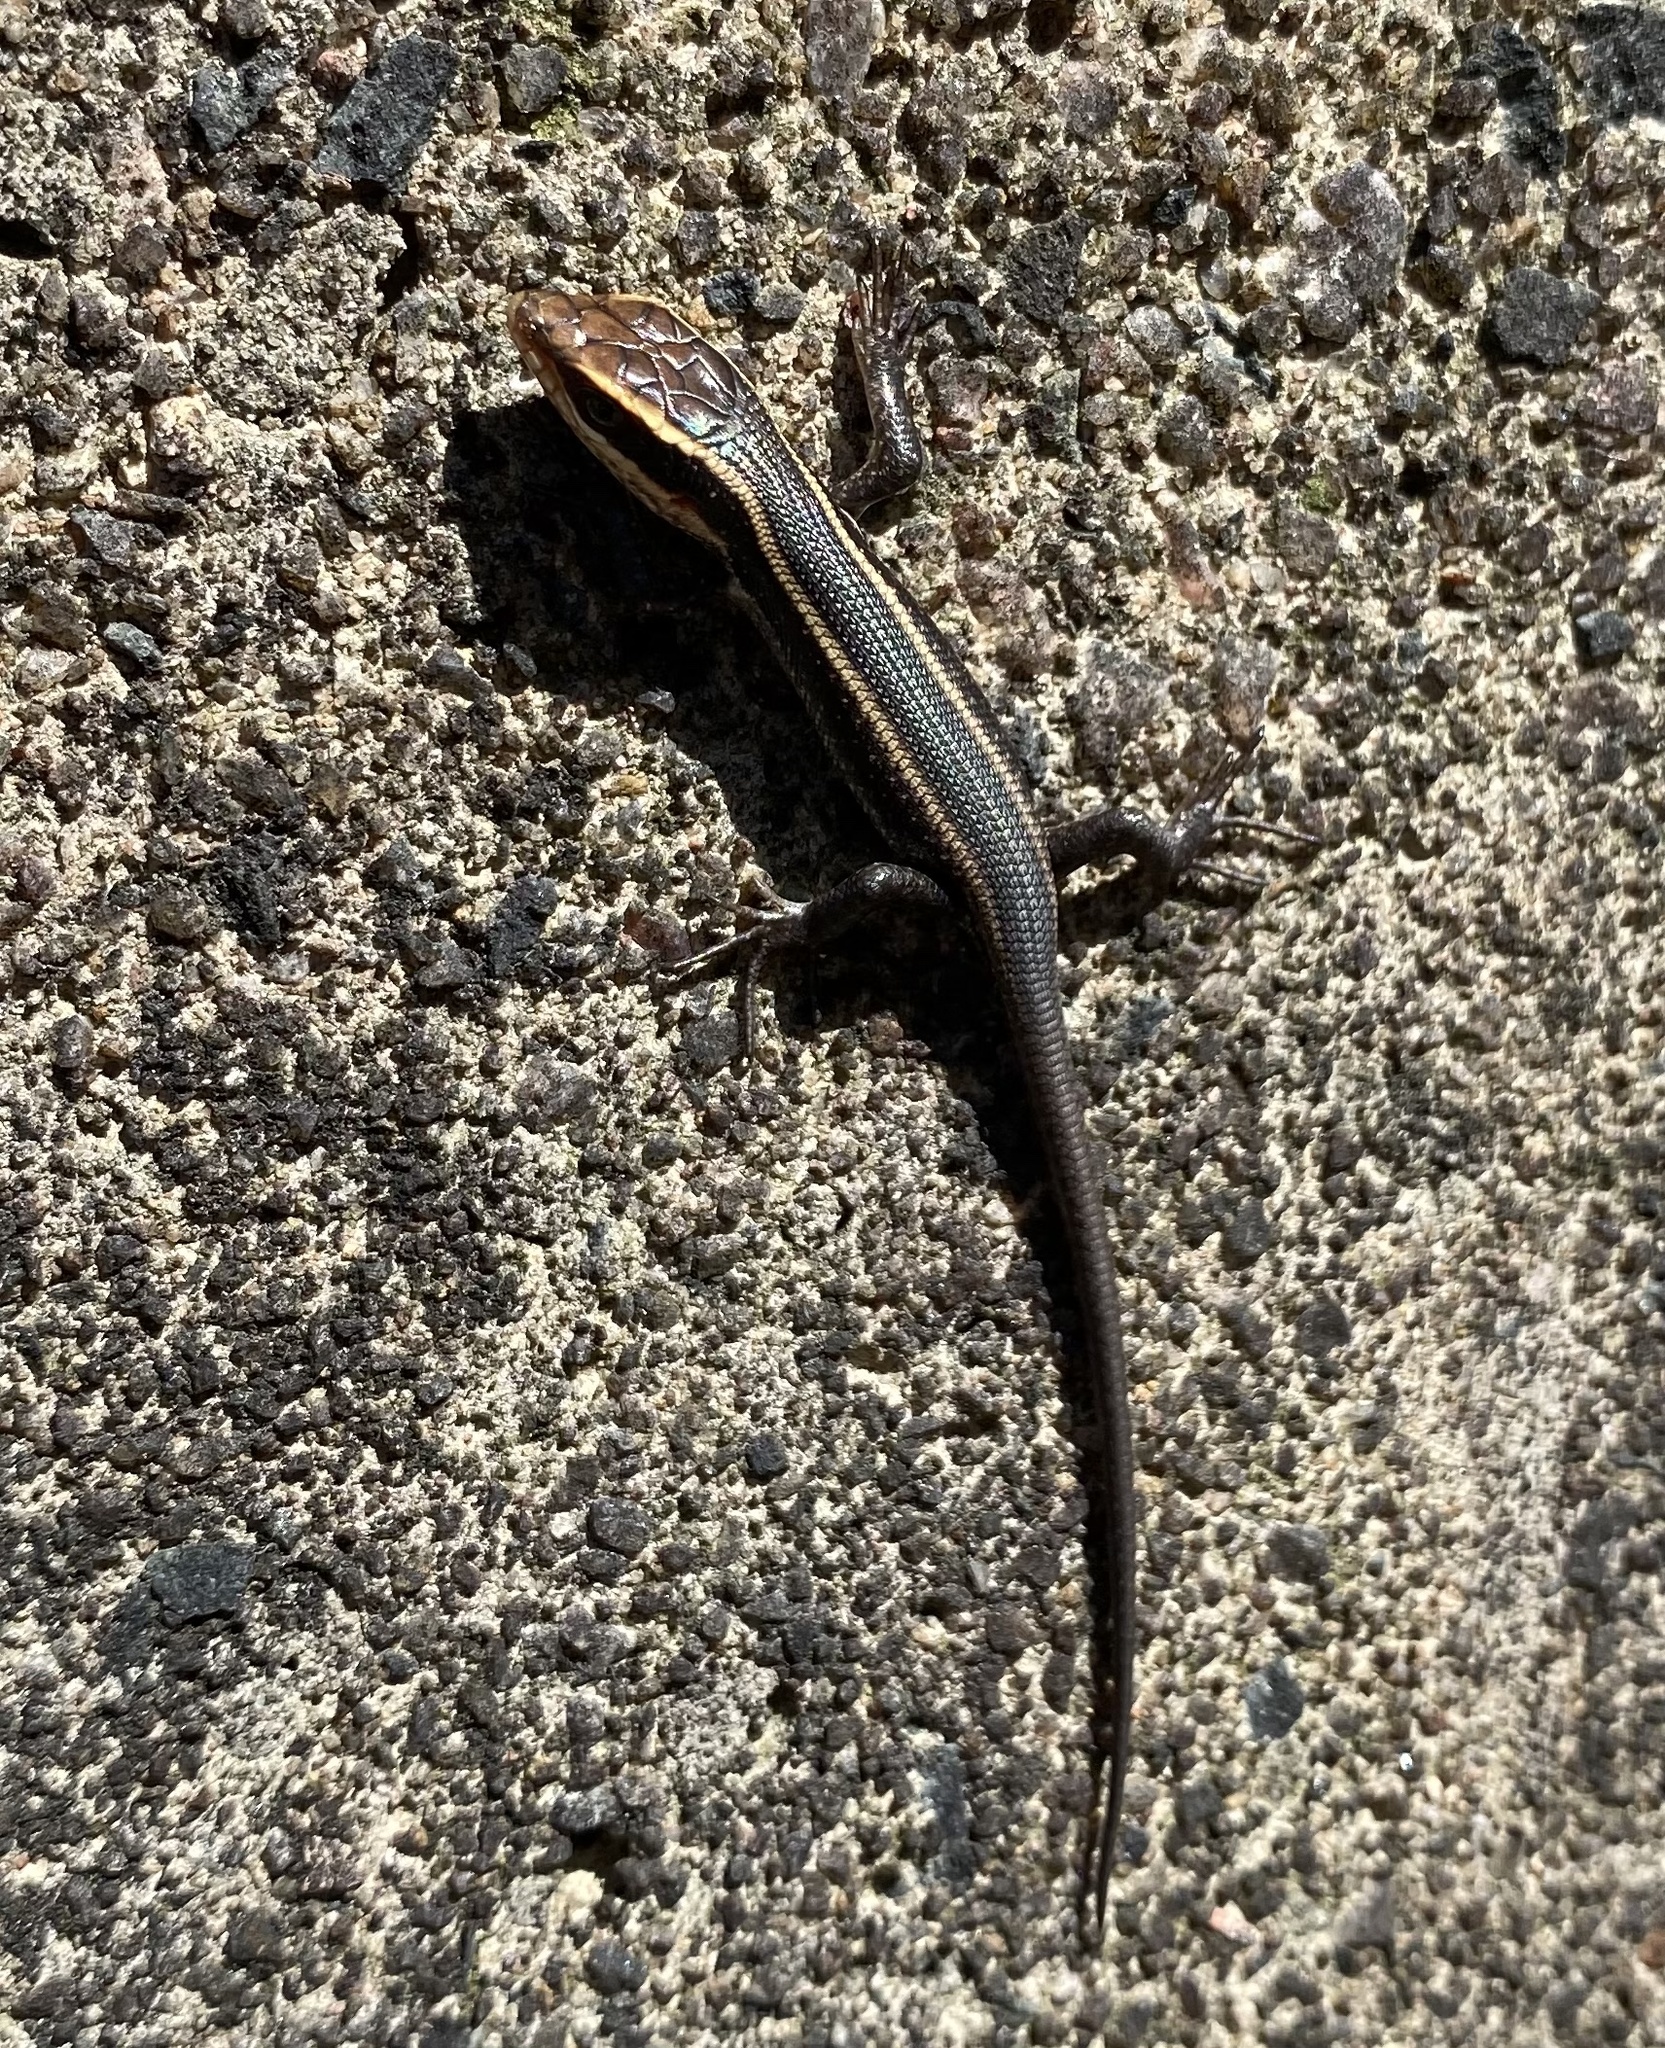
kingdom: Animalia
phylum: Chordata
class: Squamata
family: Scincidae
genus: Trachylepis
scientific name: Trachylepis striata
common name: African striped mabuya
